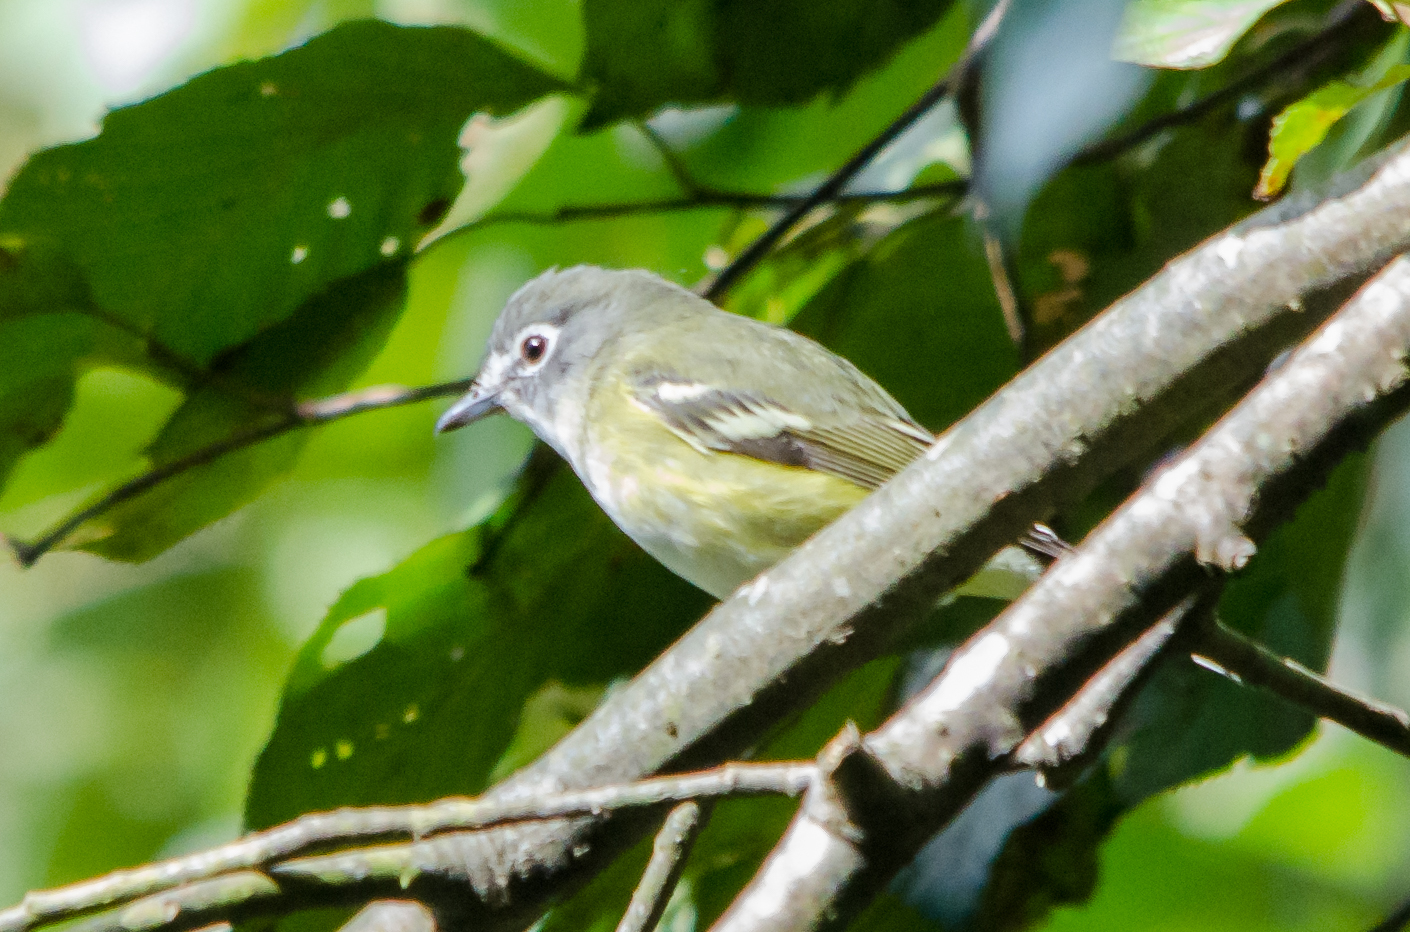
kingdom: Animalia
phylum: Chordata
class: Aves
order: Passeriformes
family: Vireonidae
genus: Vireo
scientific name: Vireo solitarius
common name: Blue-headed vireo
